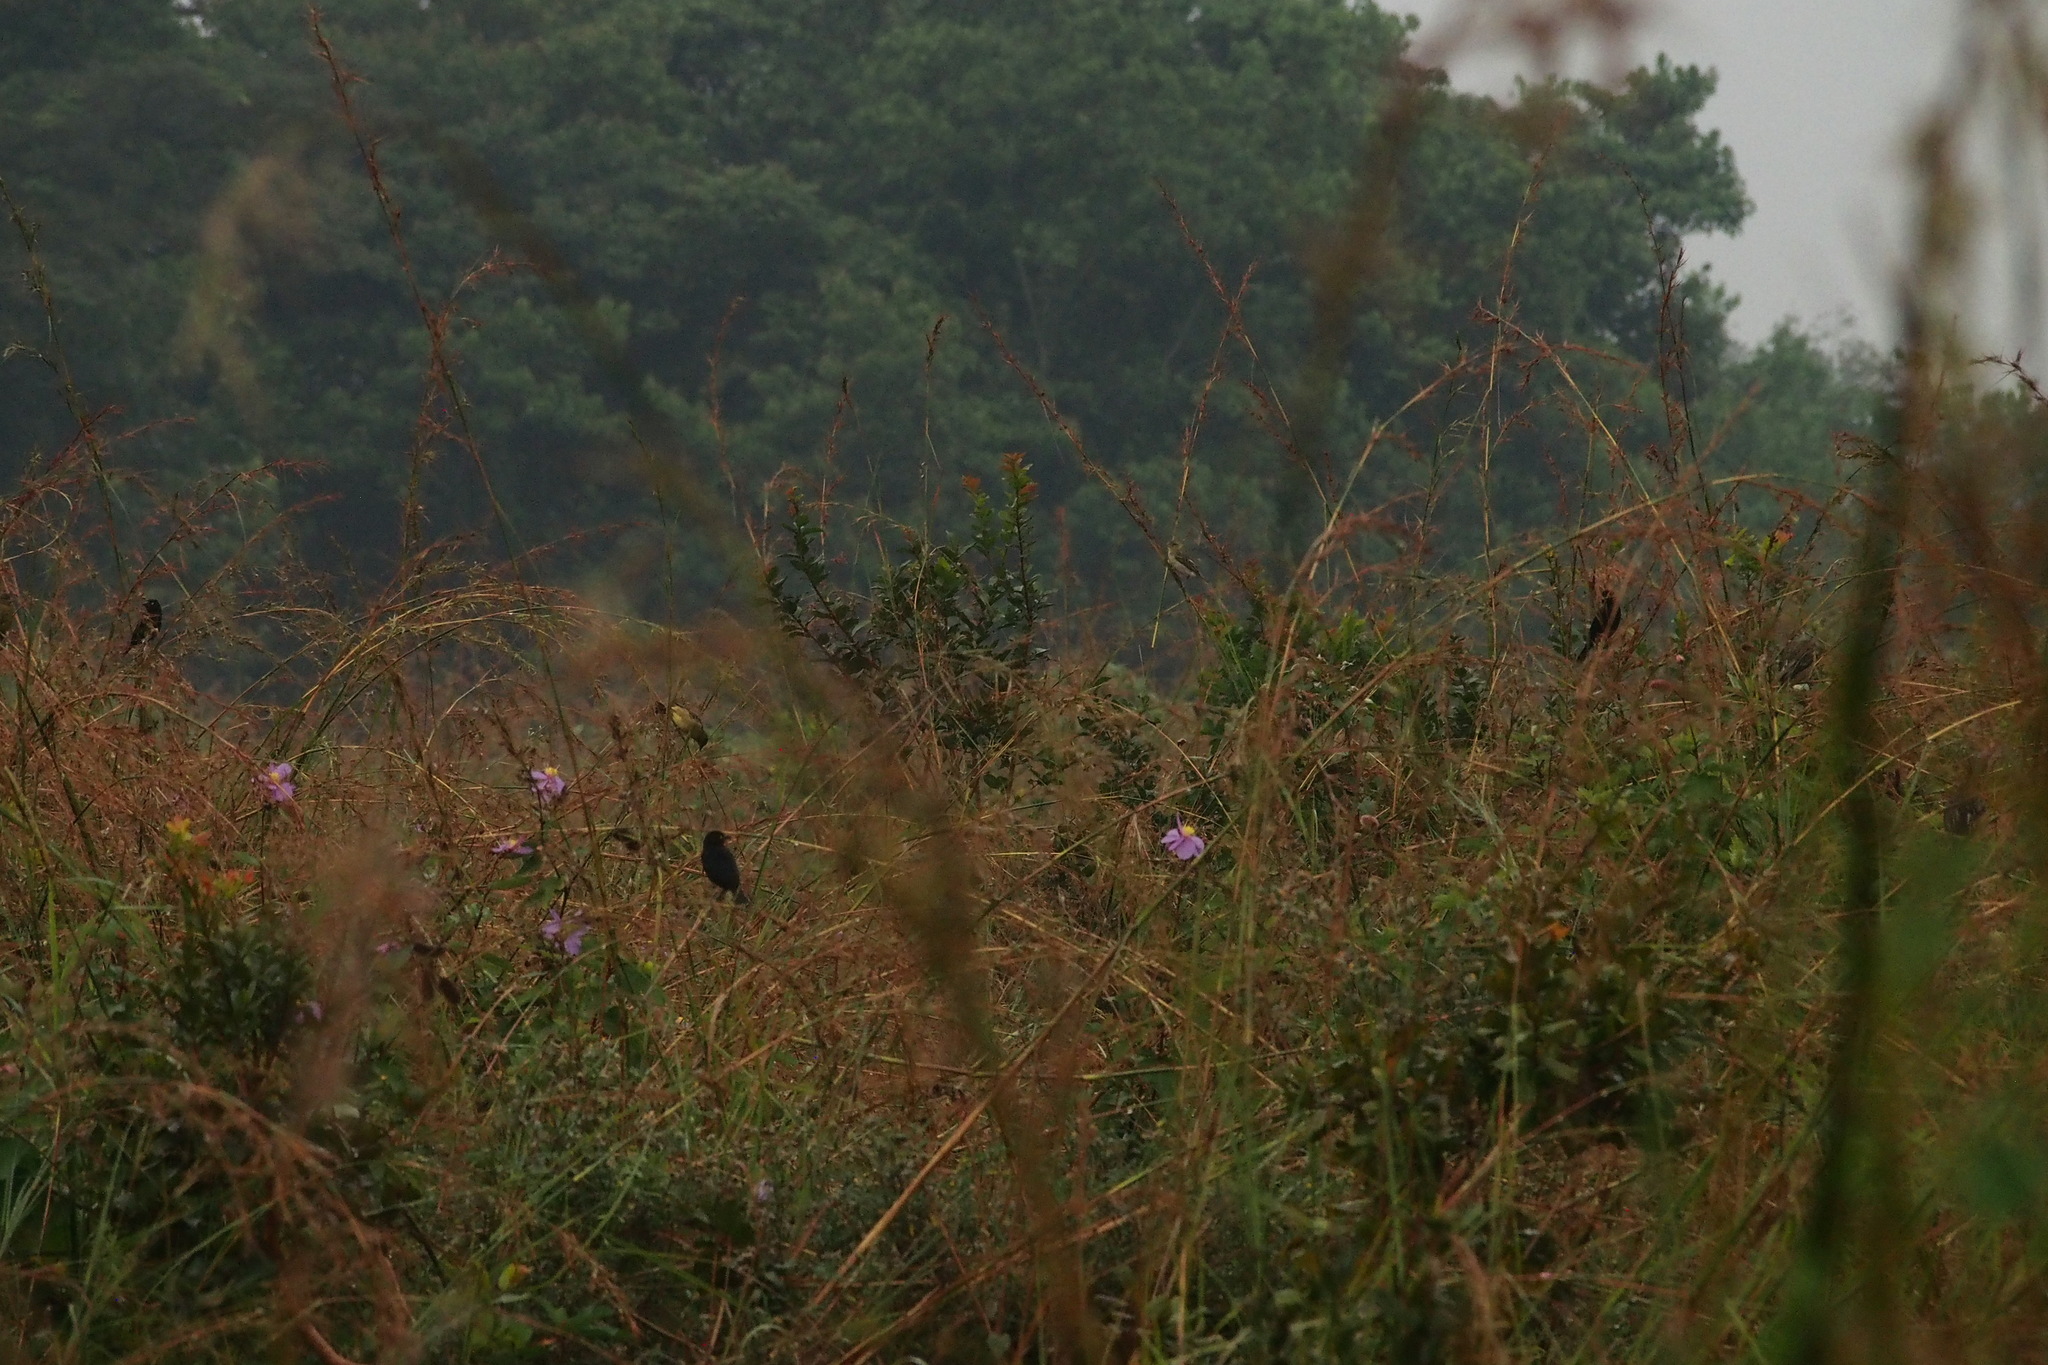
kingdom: Animalia
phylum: Chordata
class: Aves
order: Passeriformes
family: Ploceidae
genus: Ploceus
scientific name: Ploceus nigerrimus
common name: Vieillot's black weaver
